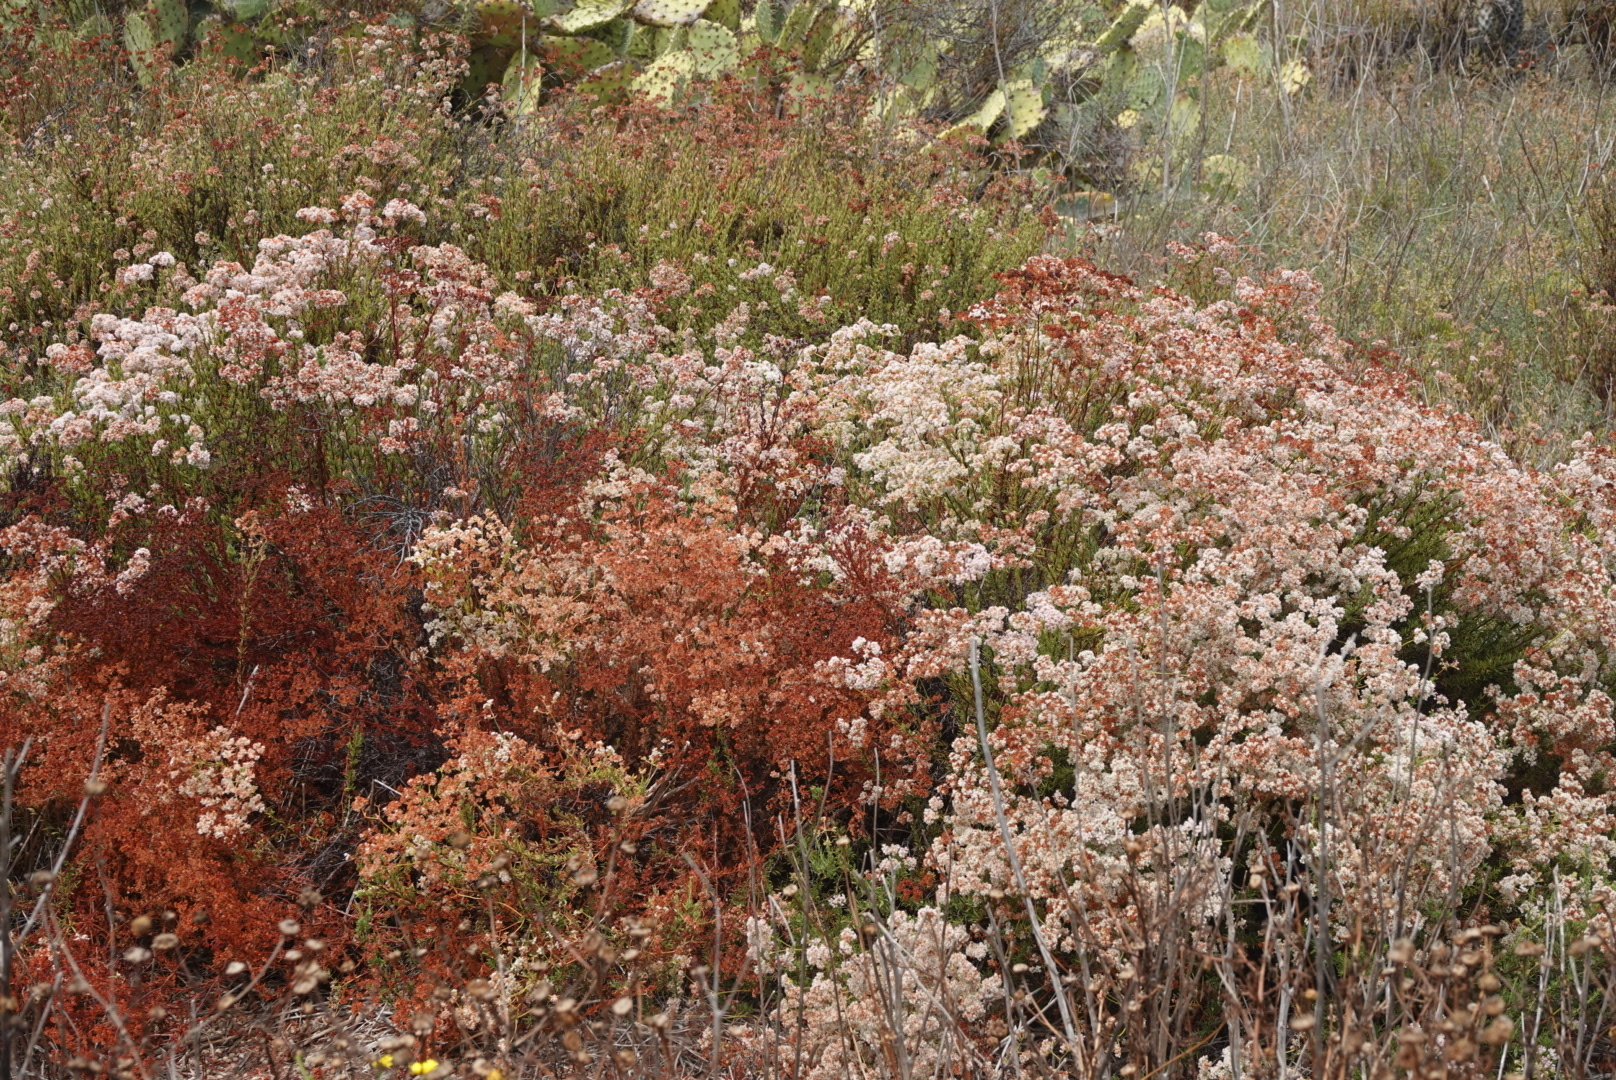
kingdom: Plantae
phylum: Tracheophyta
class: Magnoliopsida
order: Caryophyllales
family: Polygonaceae
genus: Eriogonum
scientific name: Eriogonum fasciculatum
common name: California wild buckwheat
